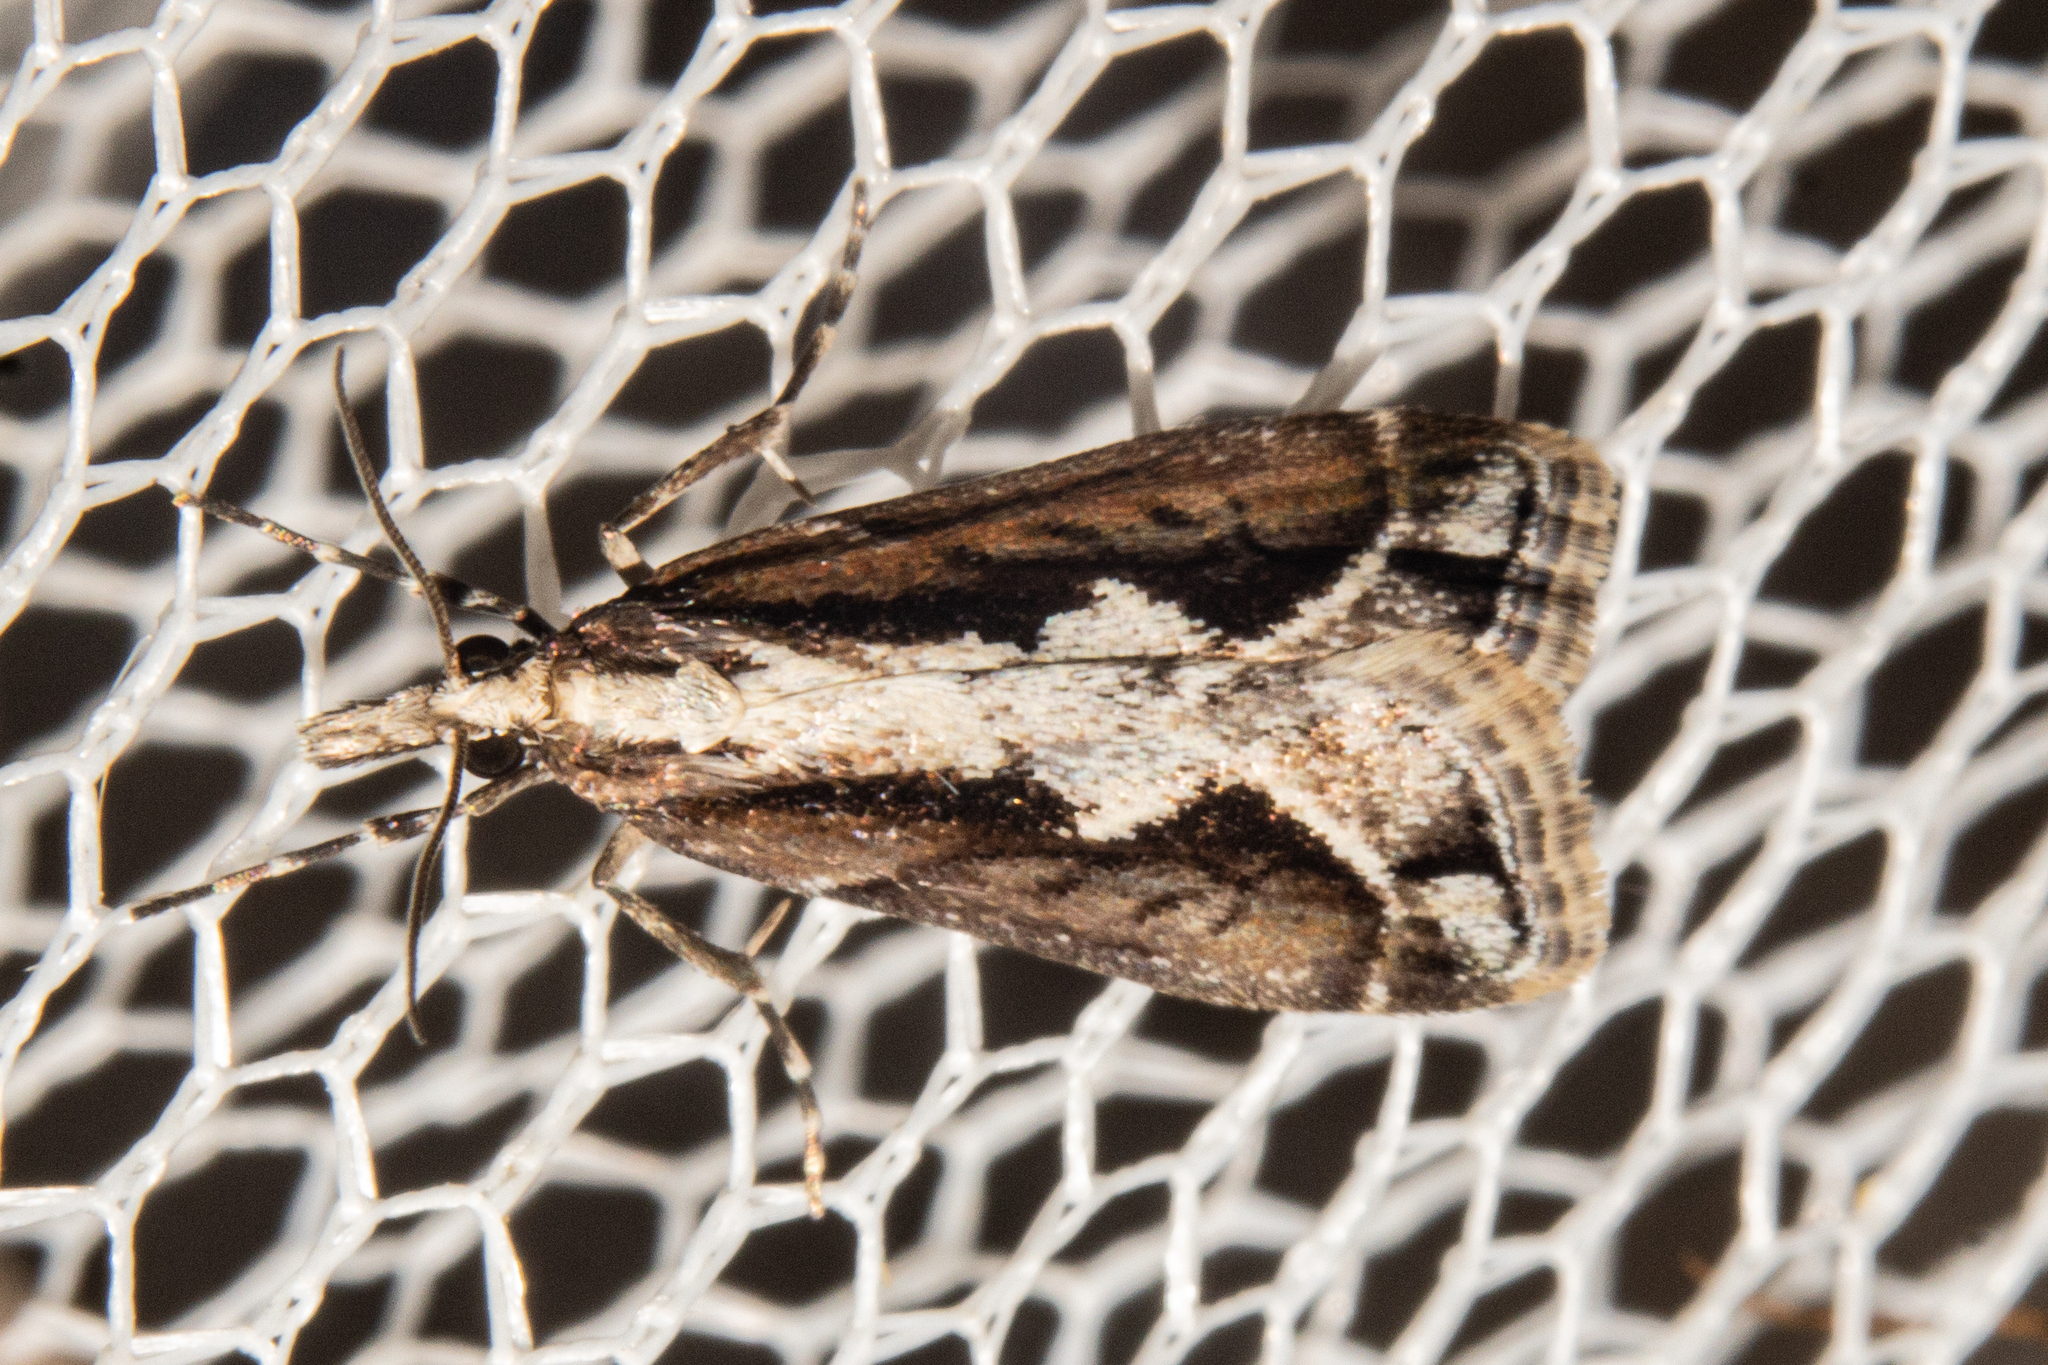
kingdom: Animalia
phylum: Arthropoda
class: Insecta
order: Lepidoptera
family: Crambidae
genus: Eudonia
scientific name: Eudonia steropaea
